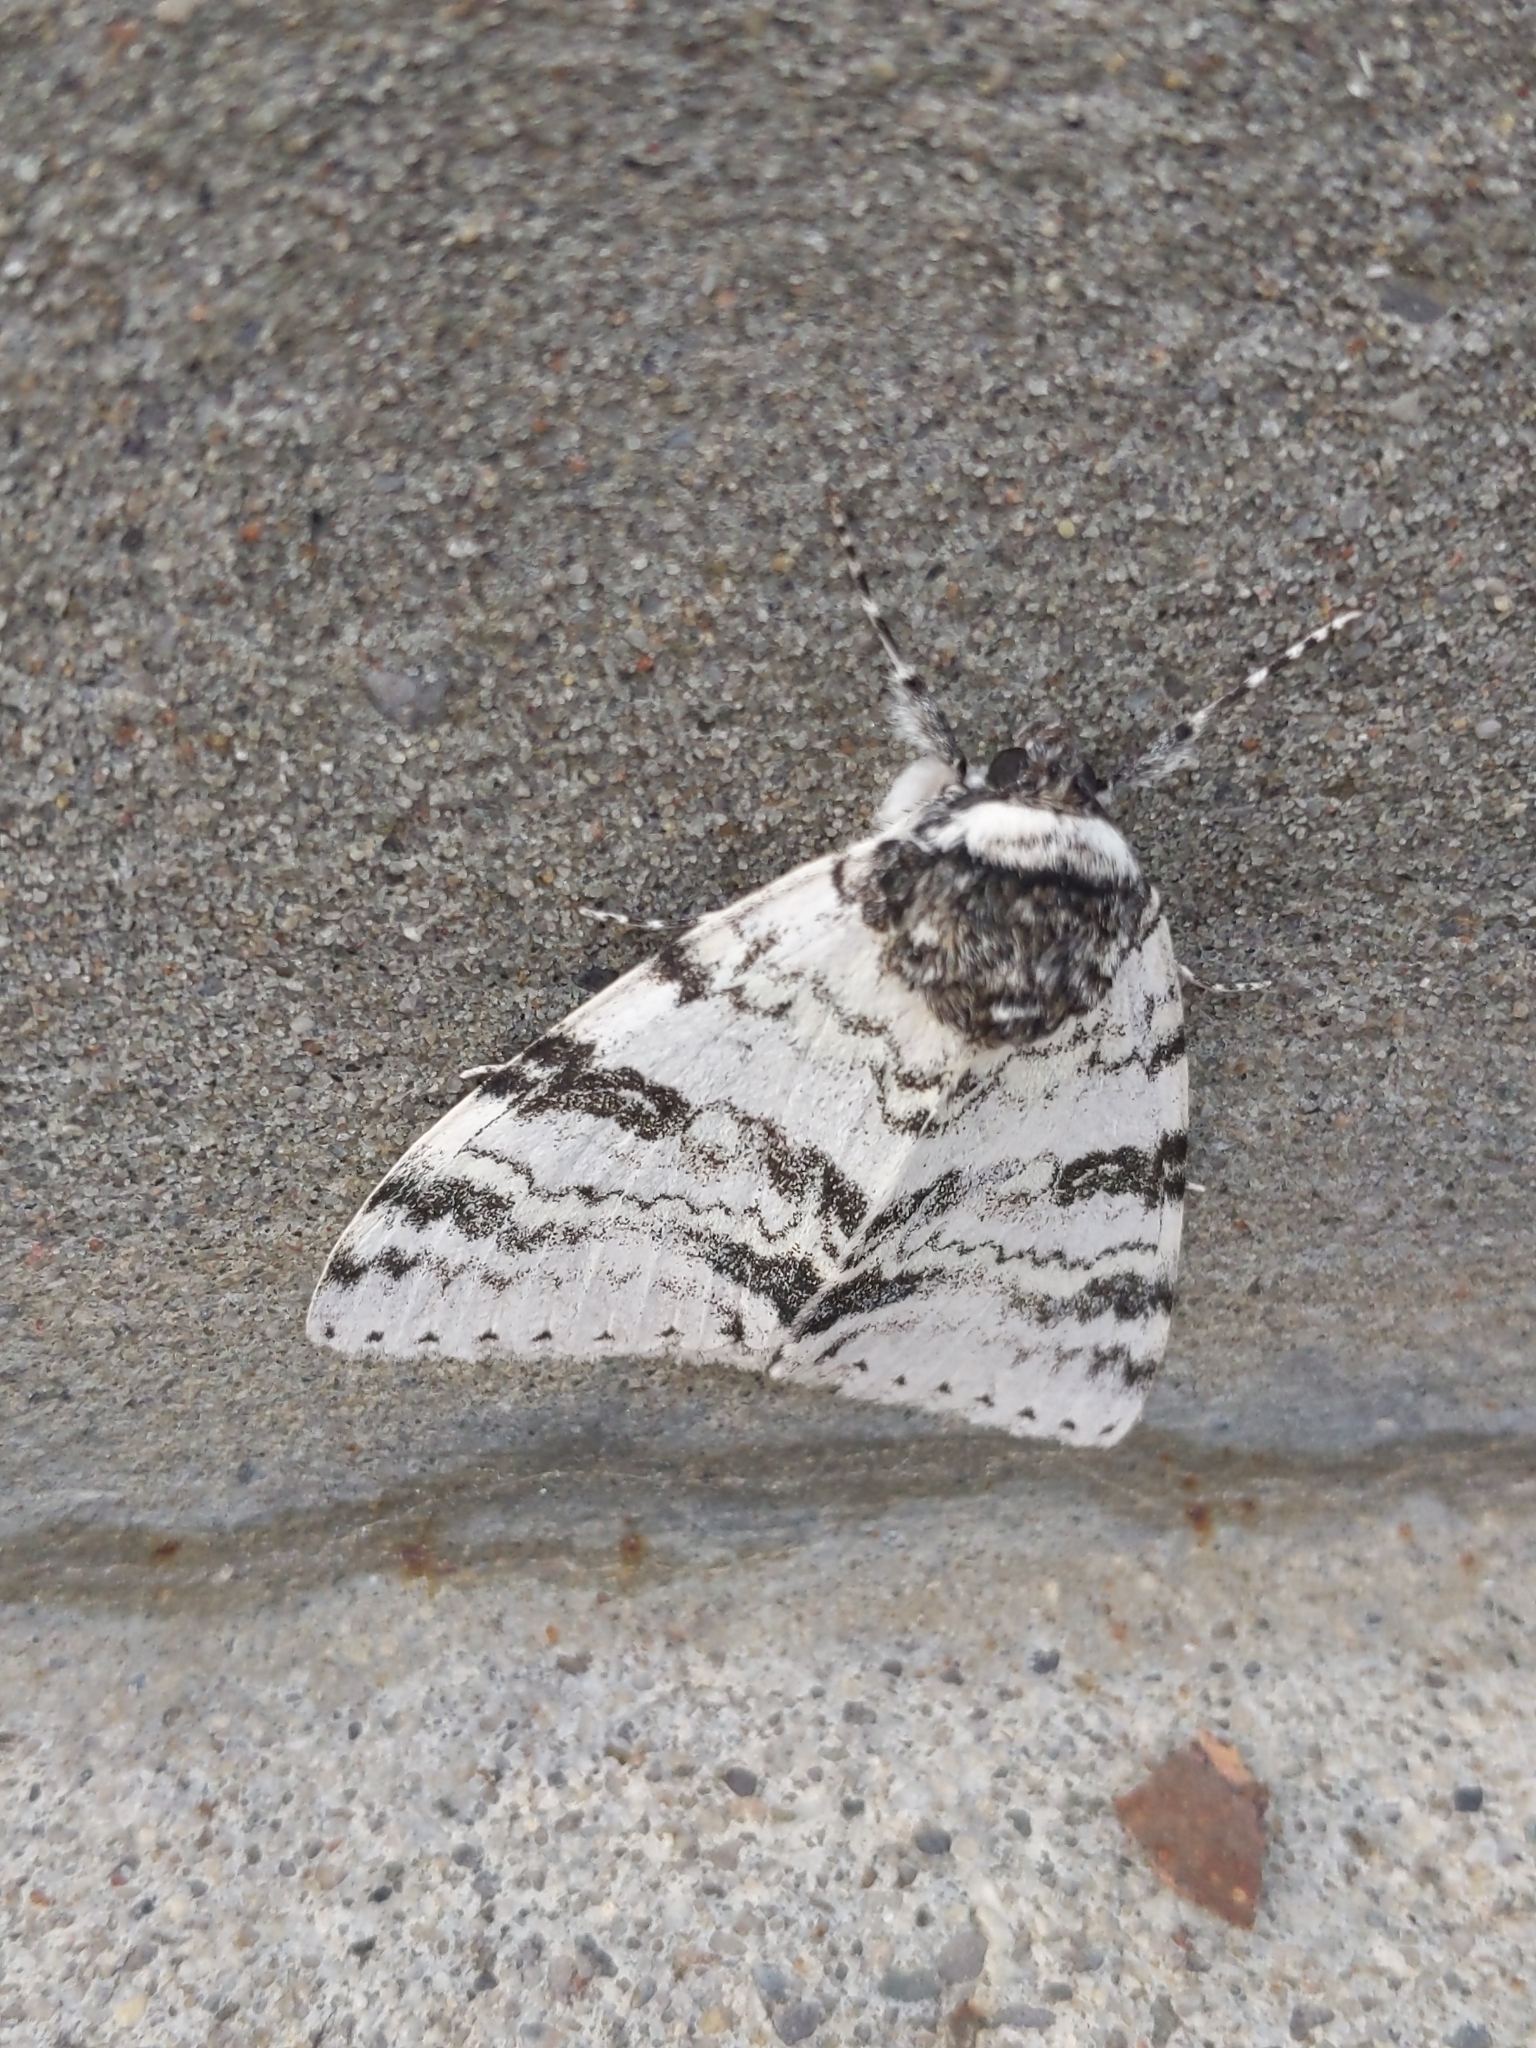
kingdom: Animalia
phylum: Arthropoda
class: Insecta
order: Lepidoptera
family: Erebidae
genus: Catocala
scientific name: Catocala relicta
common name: White underwing
